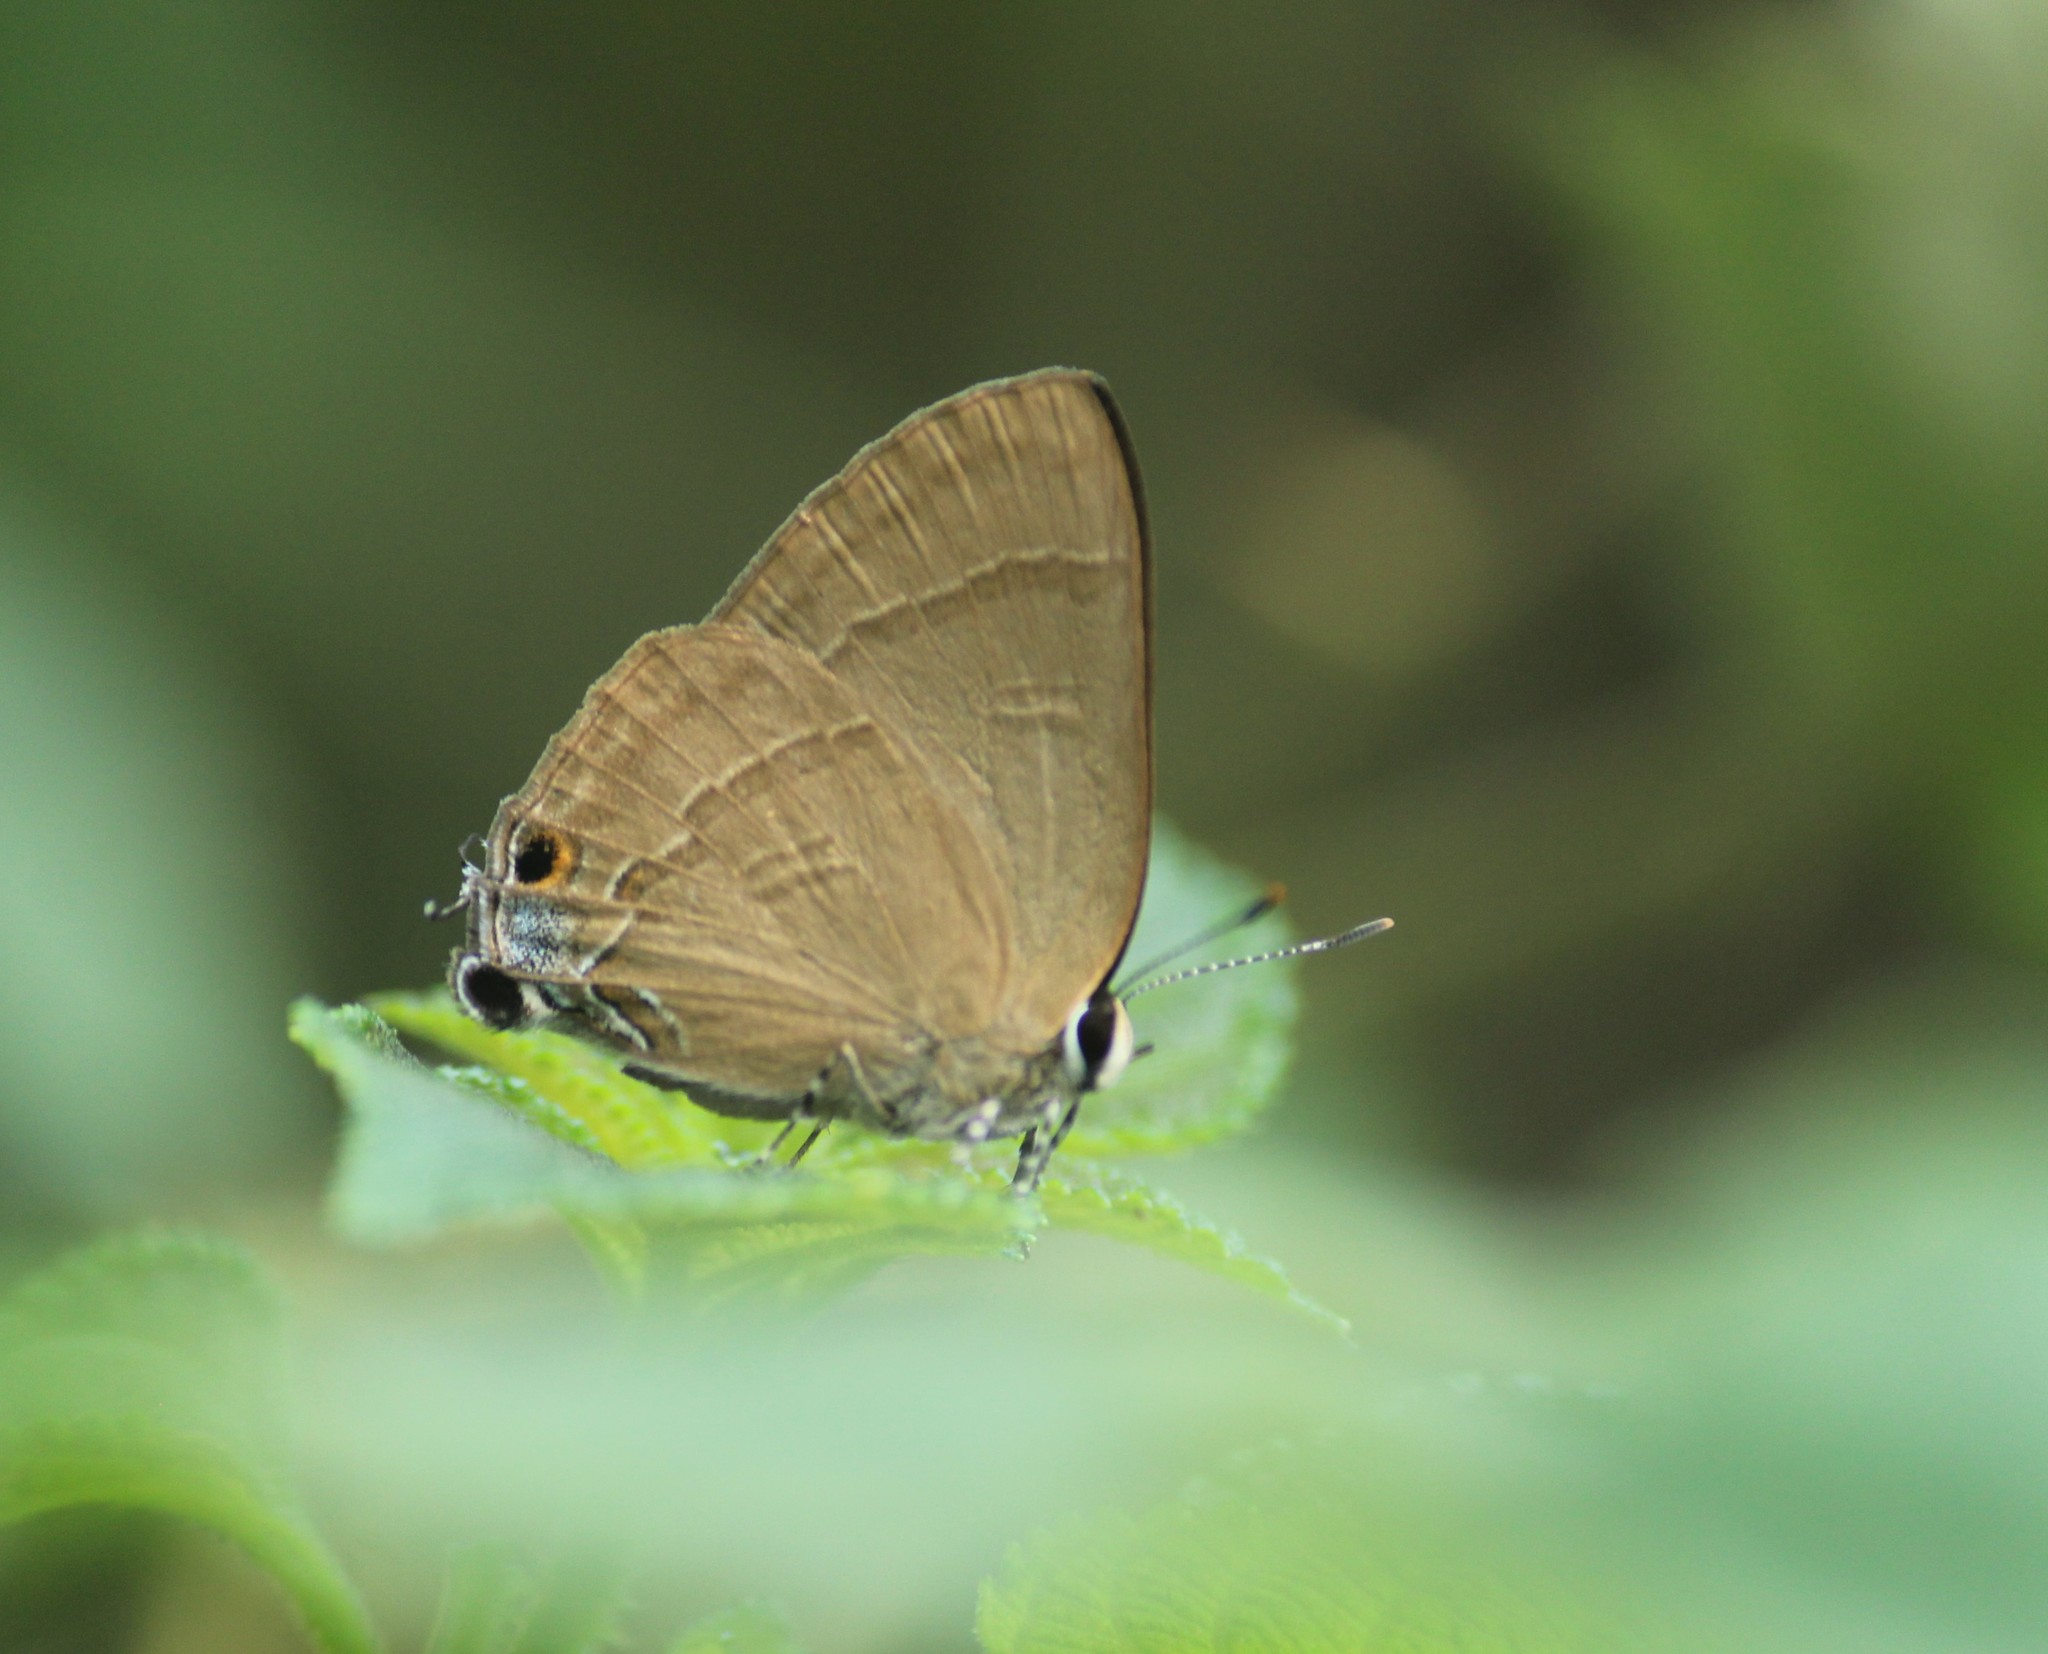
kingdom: Animalia
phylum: Arthropoda
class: Insecta
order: Lepidoptera
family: Lycaenidae
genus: Rapala
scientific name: Rapala manea
